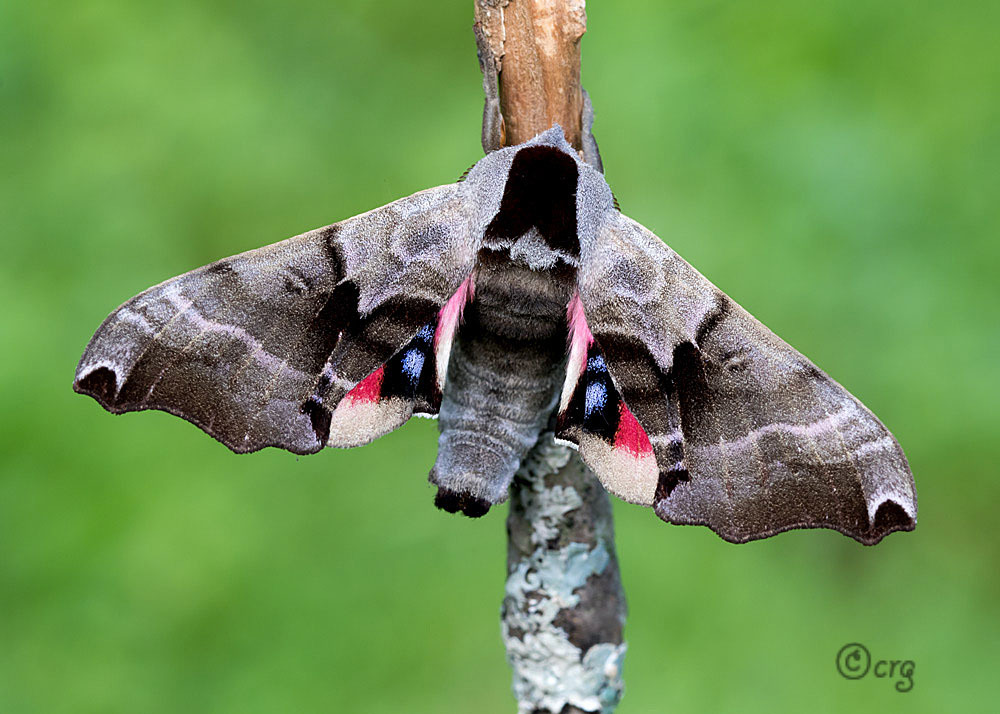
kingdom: Animalia
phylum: Arthropoda
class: Insecta
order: Lepidoptera
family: Sphingidae
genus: Smerinthus
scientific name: Smerinthus jamaicensis
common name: Twin spotted sphinx
